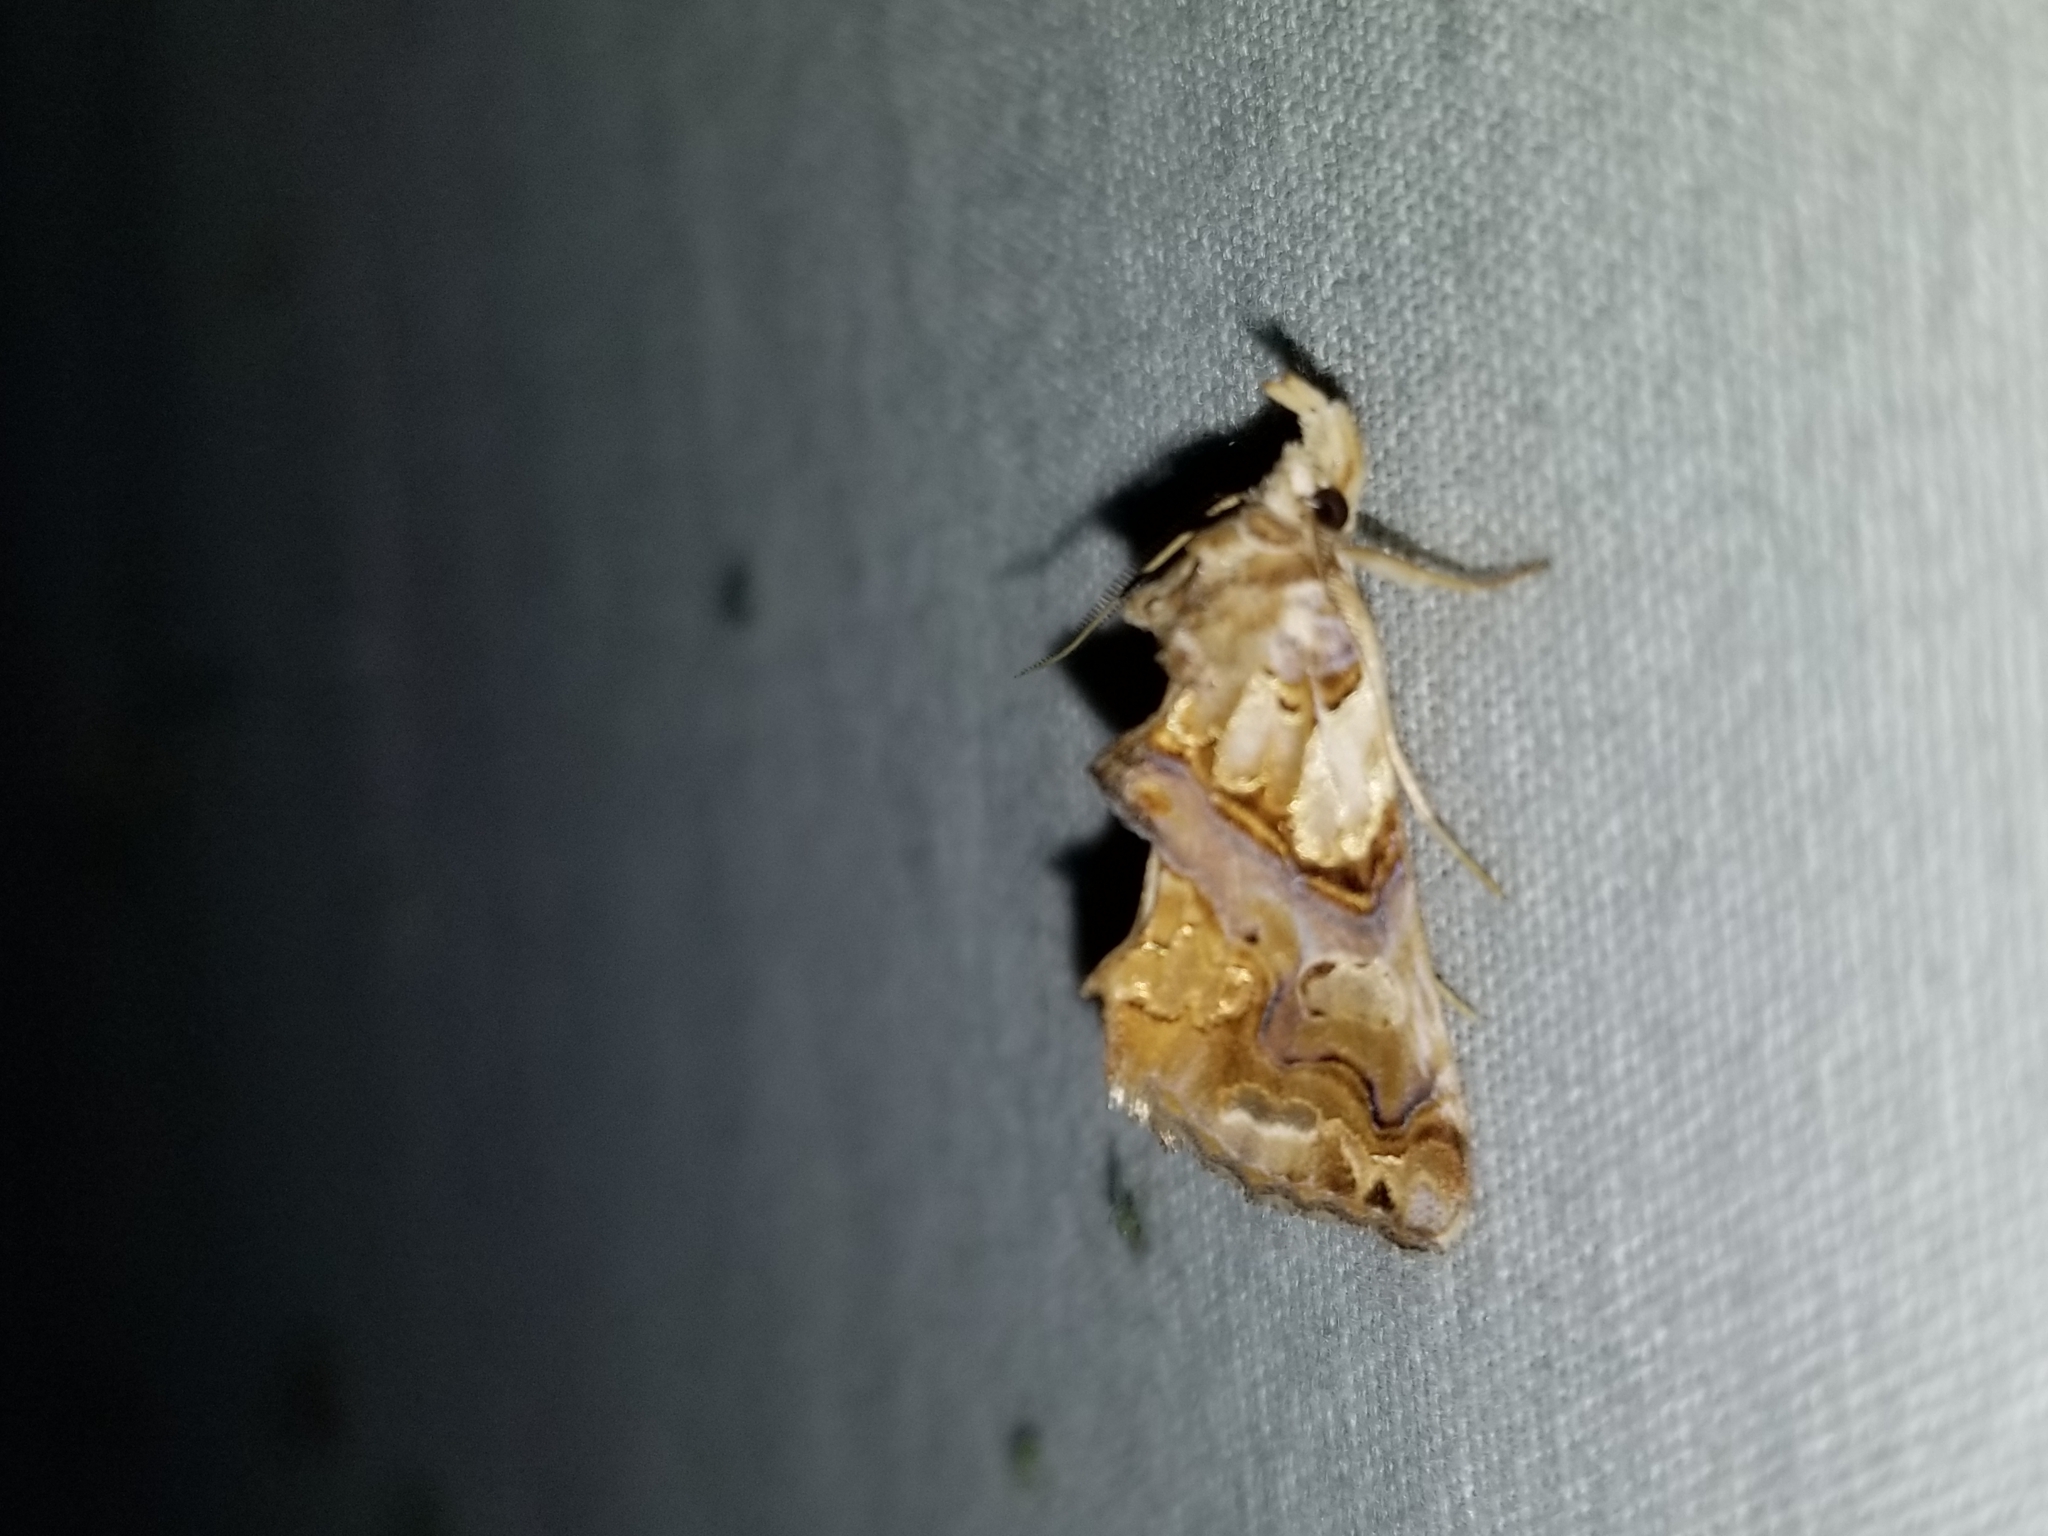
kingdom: Animalia
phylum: Arthropoda
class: Insecta
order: Lepidoptera
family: Erebidae
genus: Plusiodonta
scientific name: Plusiodonta compressipalpis
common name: Moonseed moth
